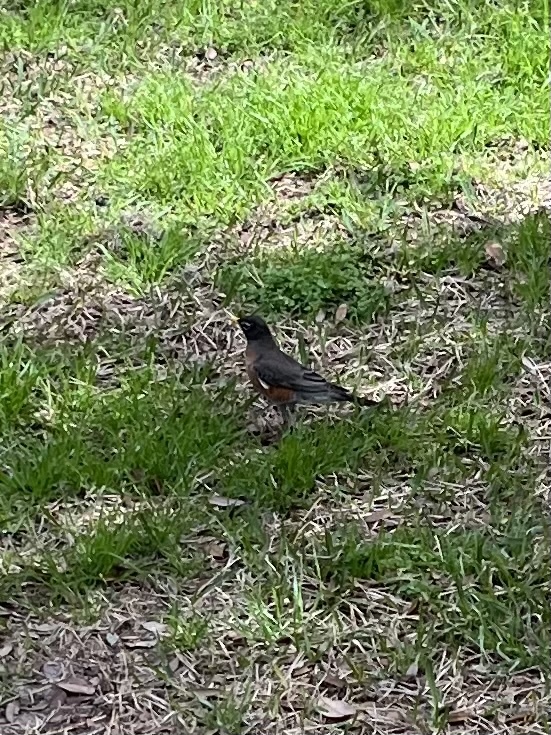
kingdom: Animalia
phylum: Chordata
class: Aves
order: Passeriformes
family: Turdidae
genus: Turdus
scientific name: Turdus migratorius
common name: American robin
